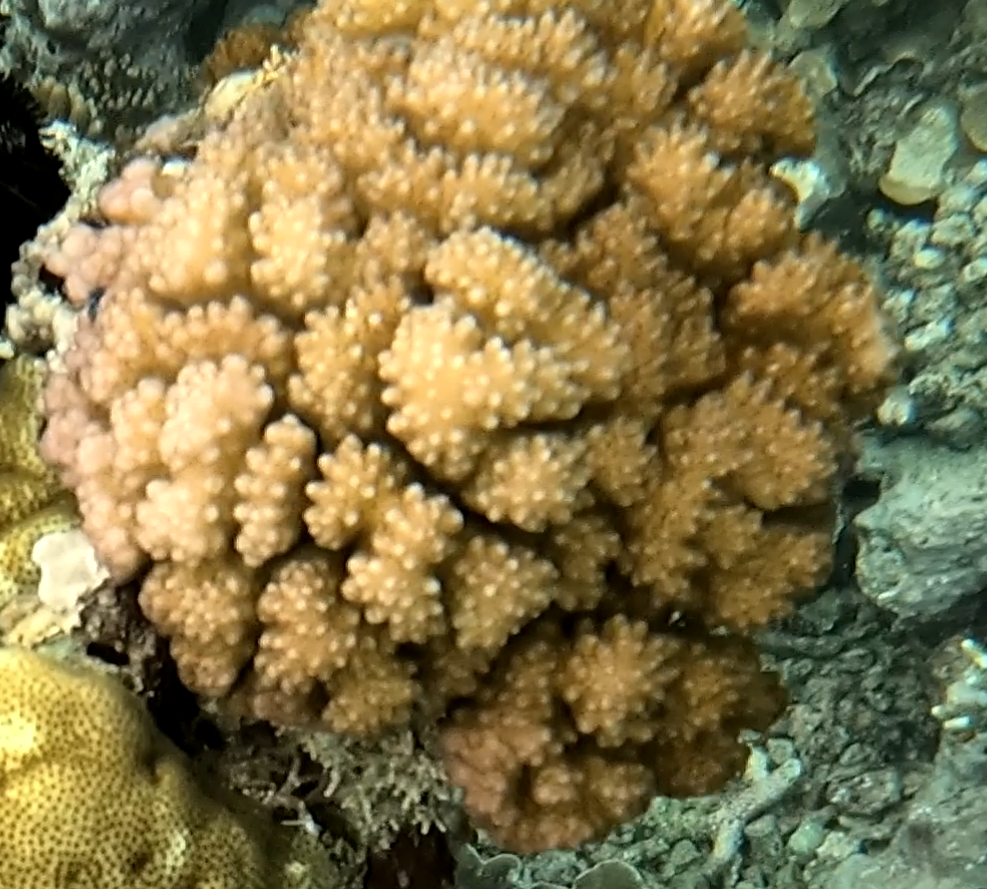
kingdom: Animalia
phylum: Cnidaria
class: Anthozoa
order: Scleractinia
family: Pocilloporidae
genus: Pocillopora
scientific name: Pocillopora verrucosa
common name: Cauliflower coral
